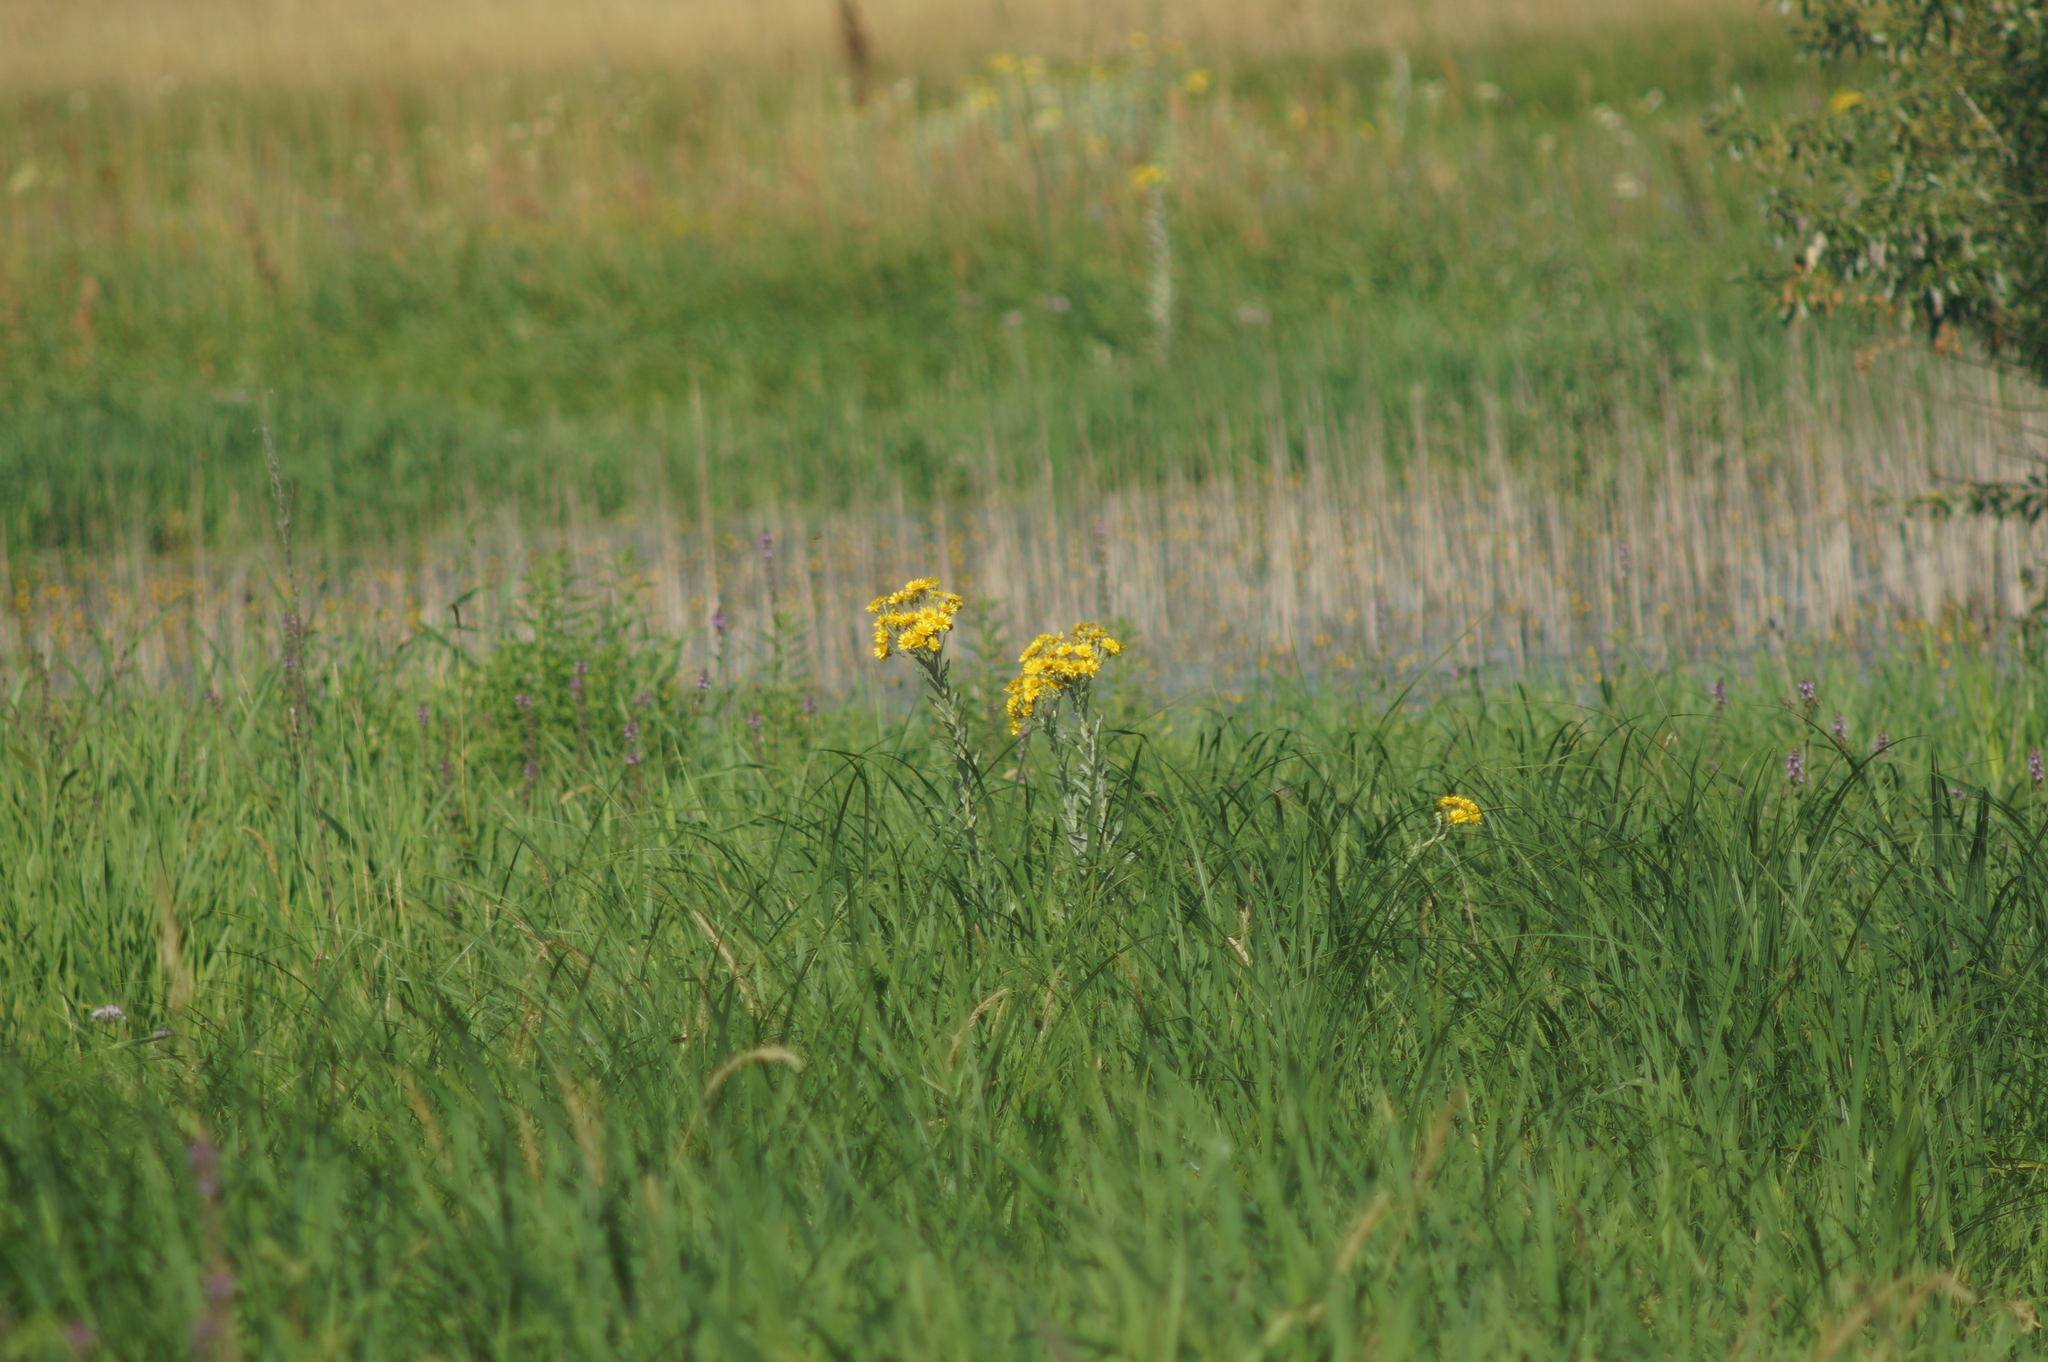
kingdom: Plantae
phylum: Tracheophyta
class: Magnoliopsida
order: Asterales
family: Asteraceae
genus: Jacobaea
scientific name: Jacobaea paludosa
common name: Fen ragwort
